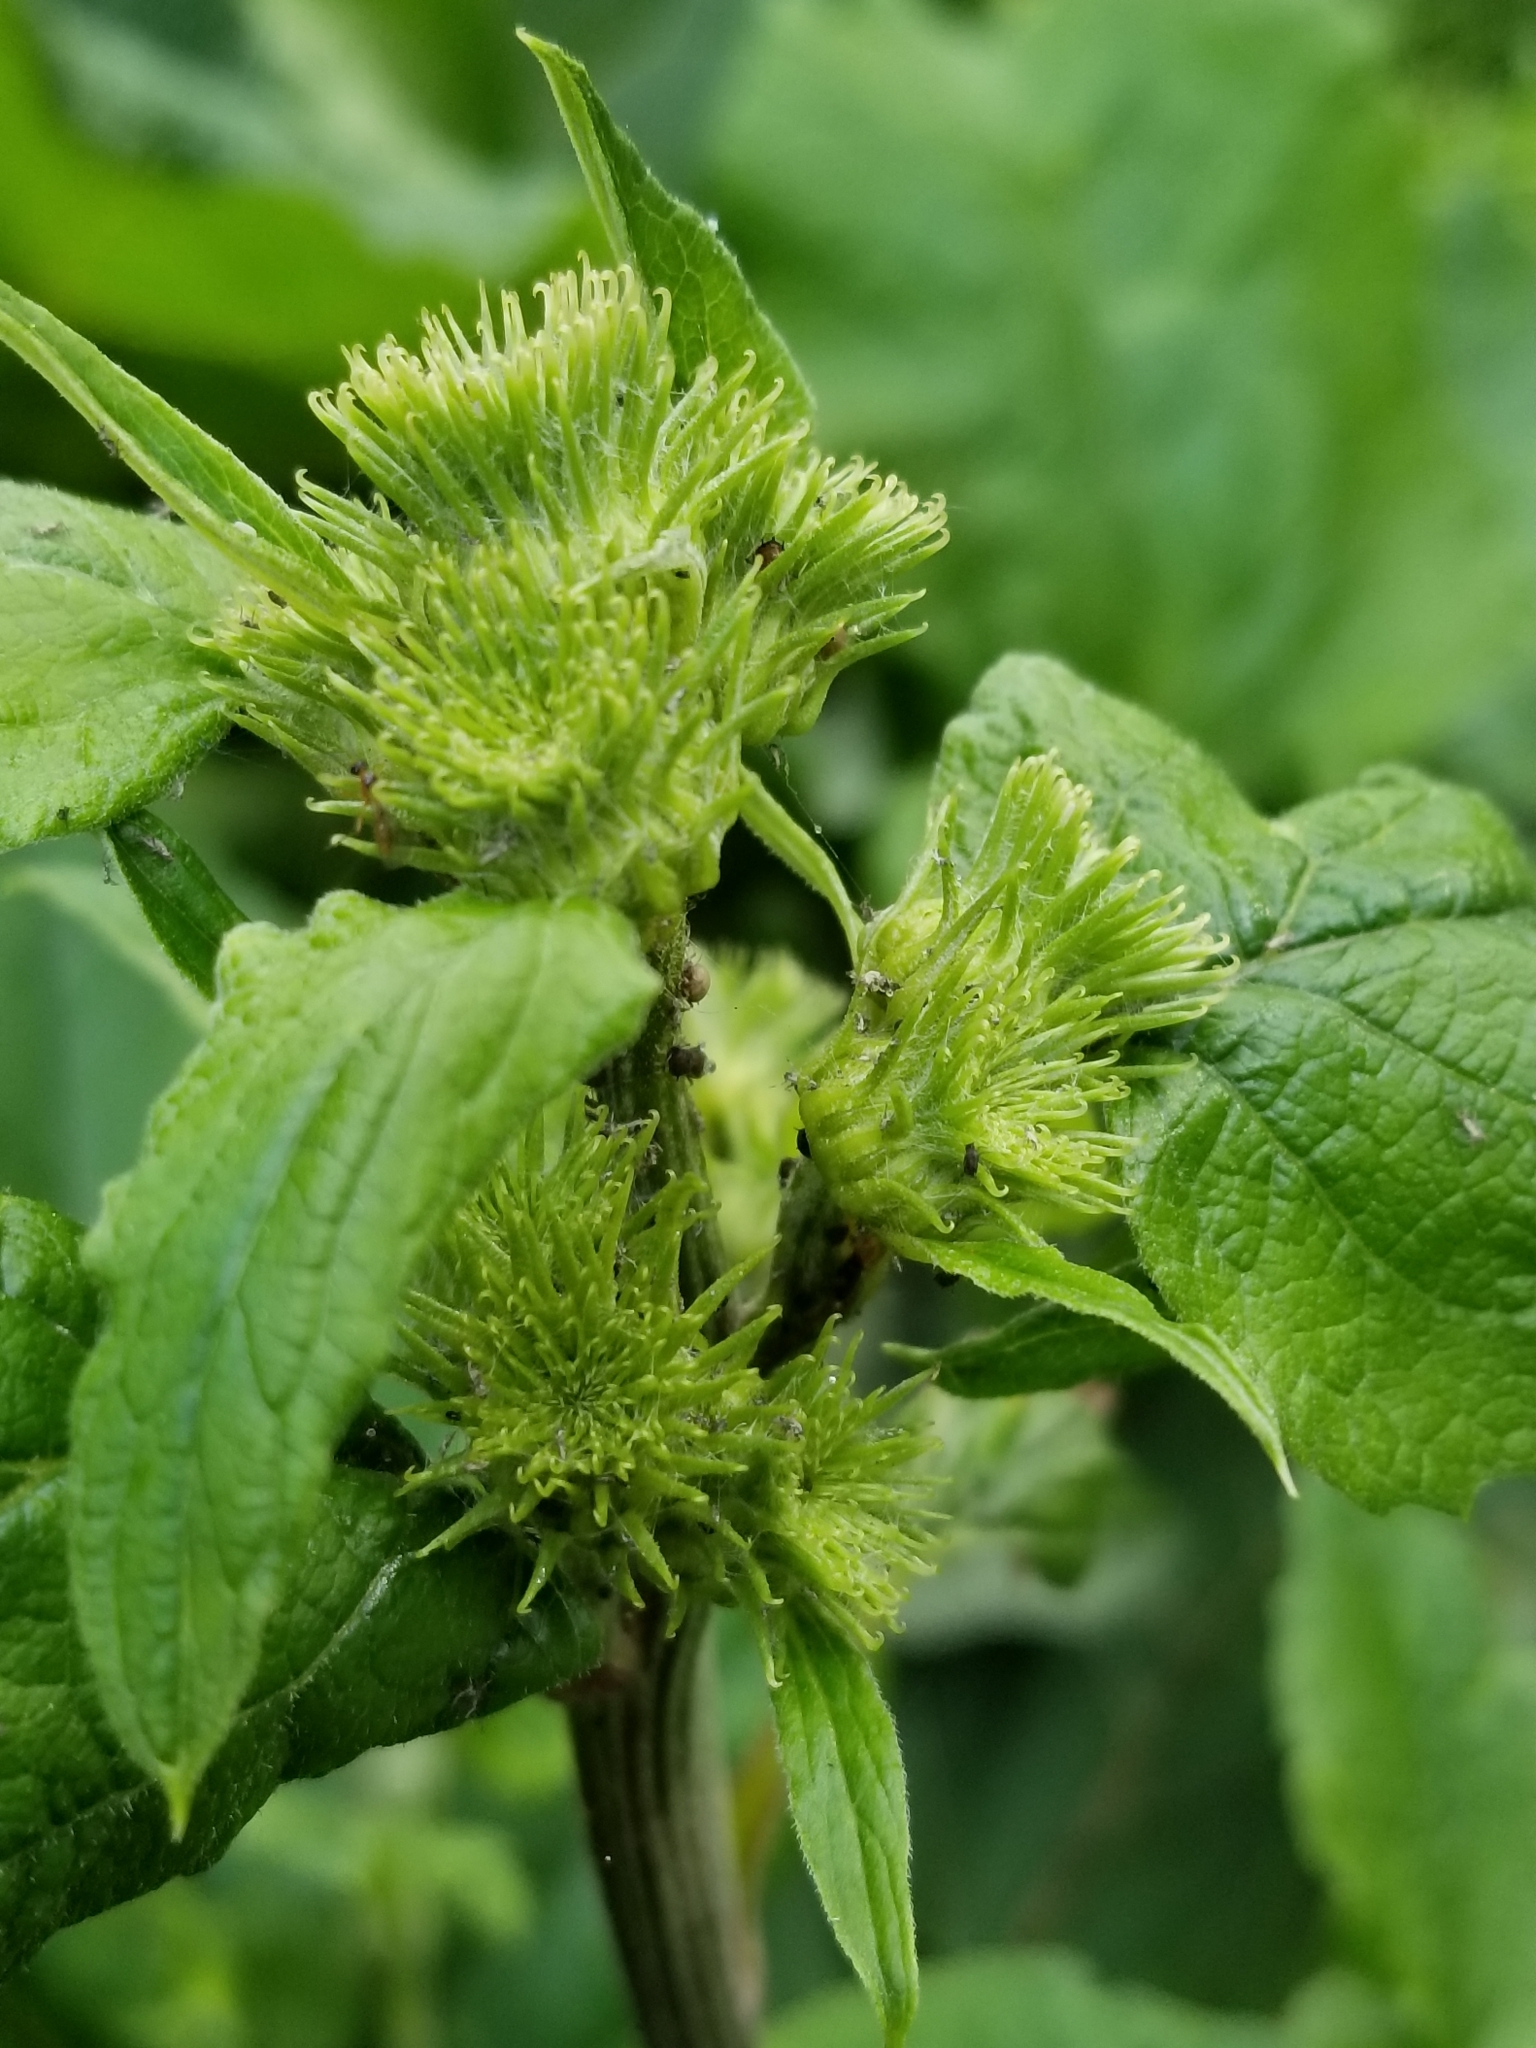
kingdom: Plantae
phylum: Tracheophyta
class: Magnoliopsida
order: Asterales
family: Asteraceae
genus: Arctium
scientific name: Arctium minus
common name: Lesser burdock
